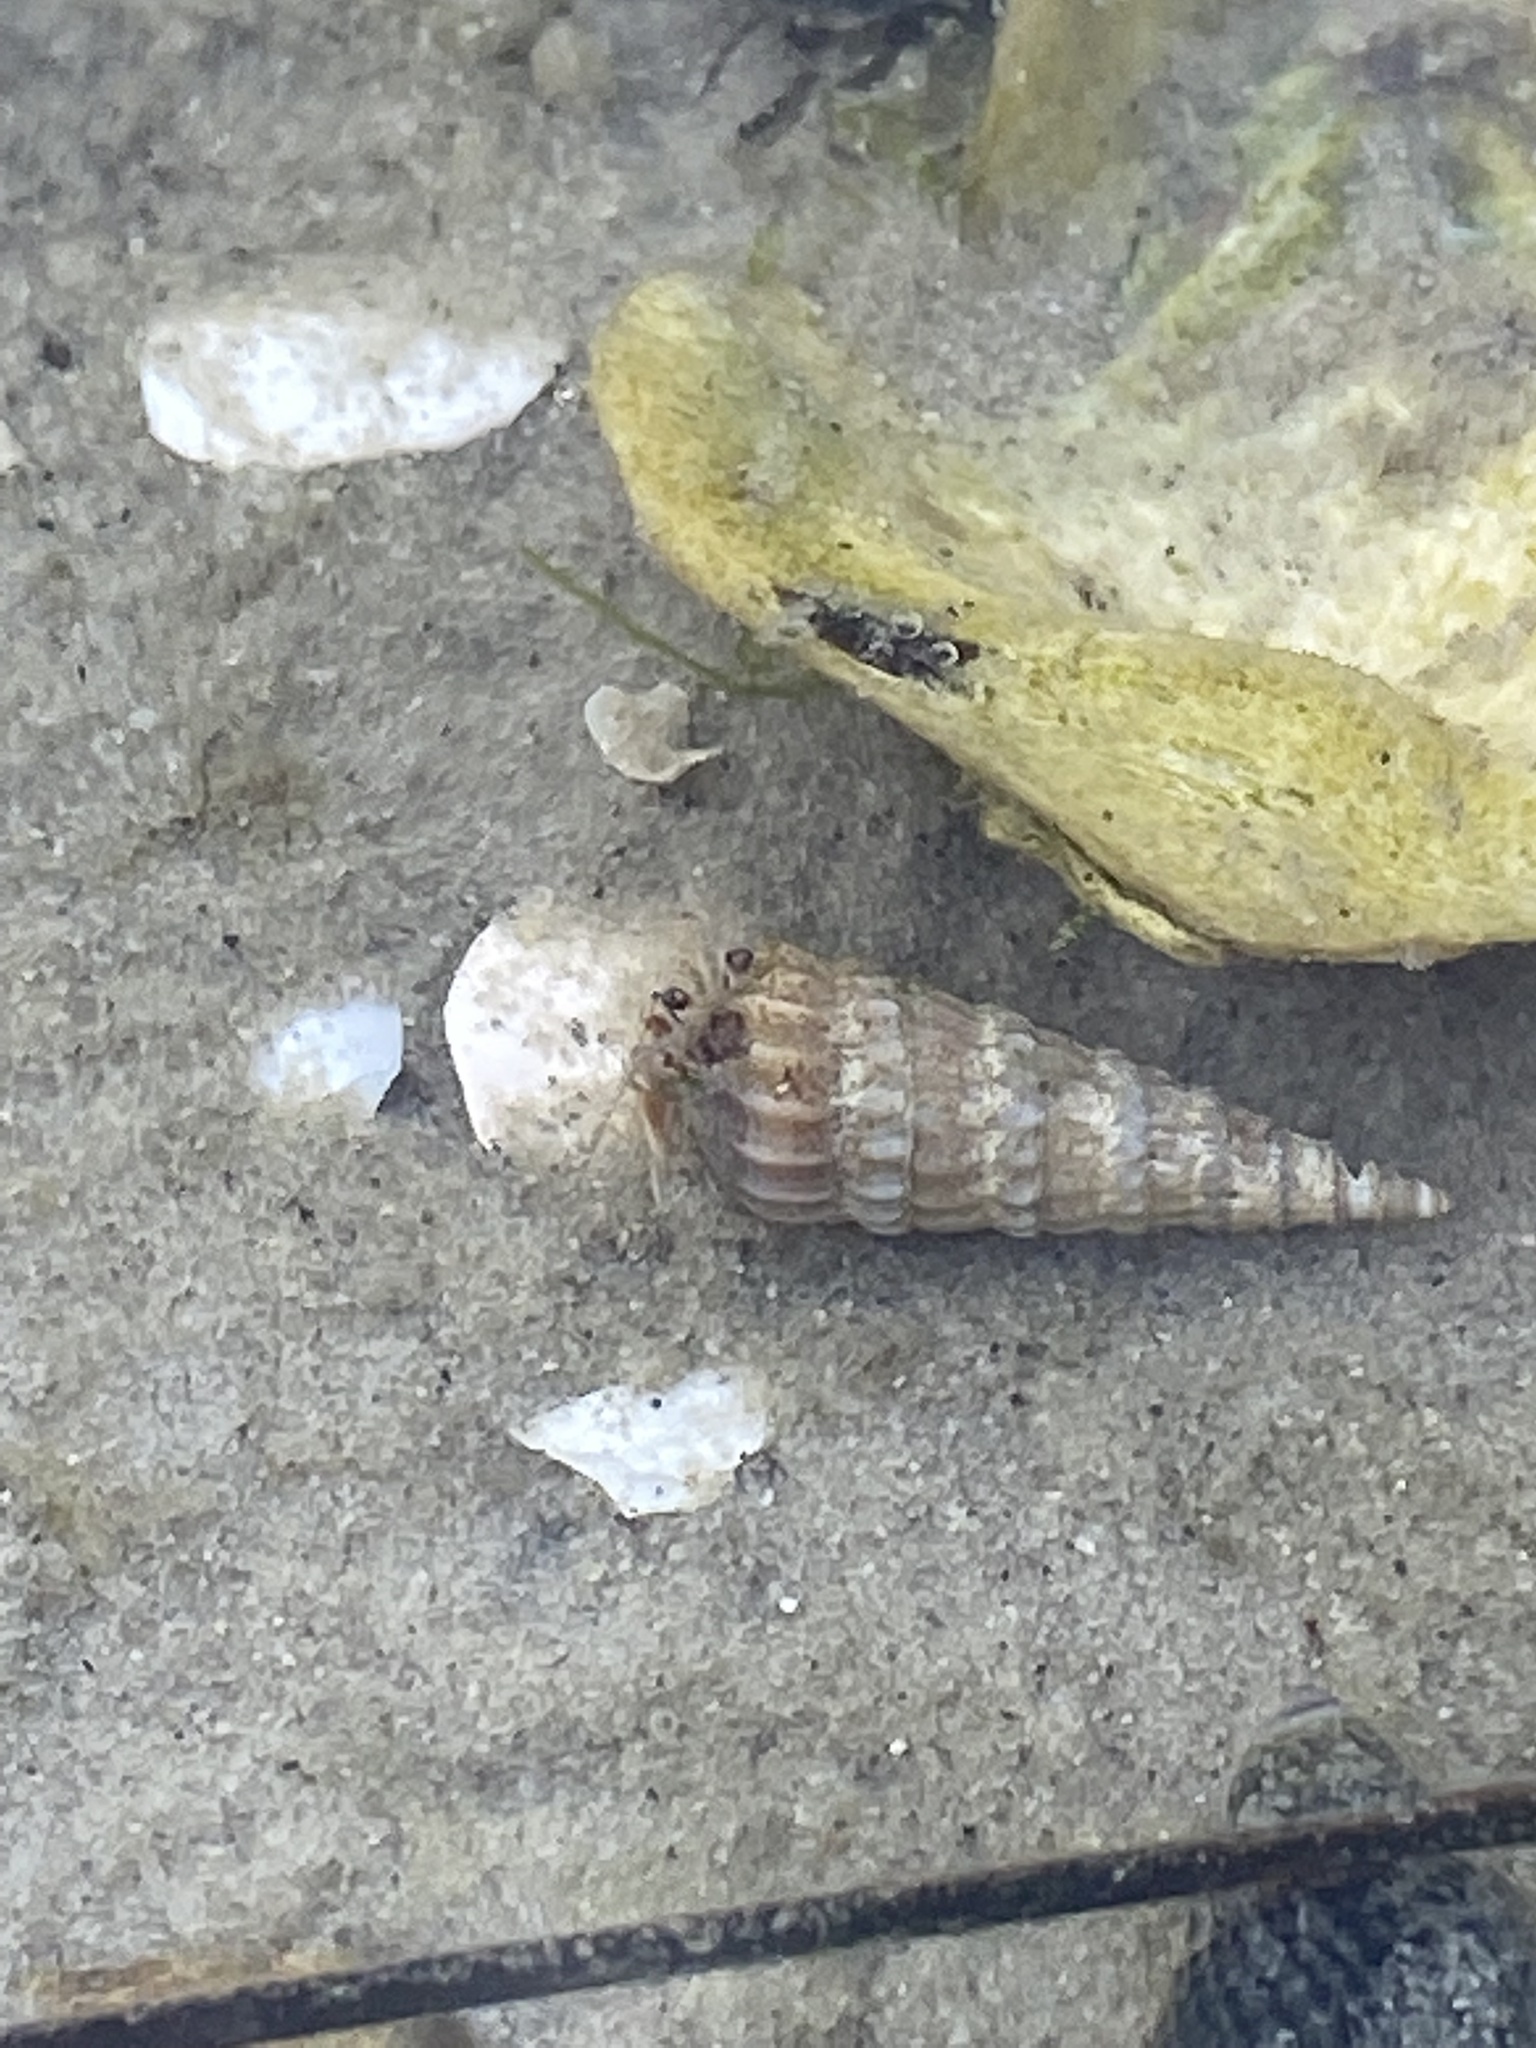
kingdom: Animalia
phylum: Arthropoda
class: Malacostraca
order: Decapoda
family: Paguridae
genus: Pagurus
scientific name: Pagurus longicarpus
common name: Long-armed hermit crab
